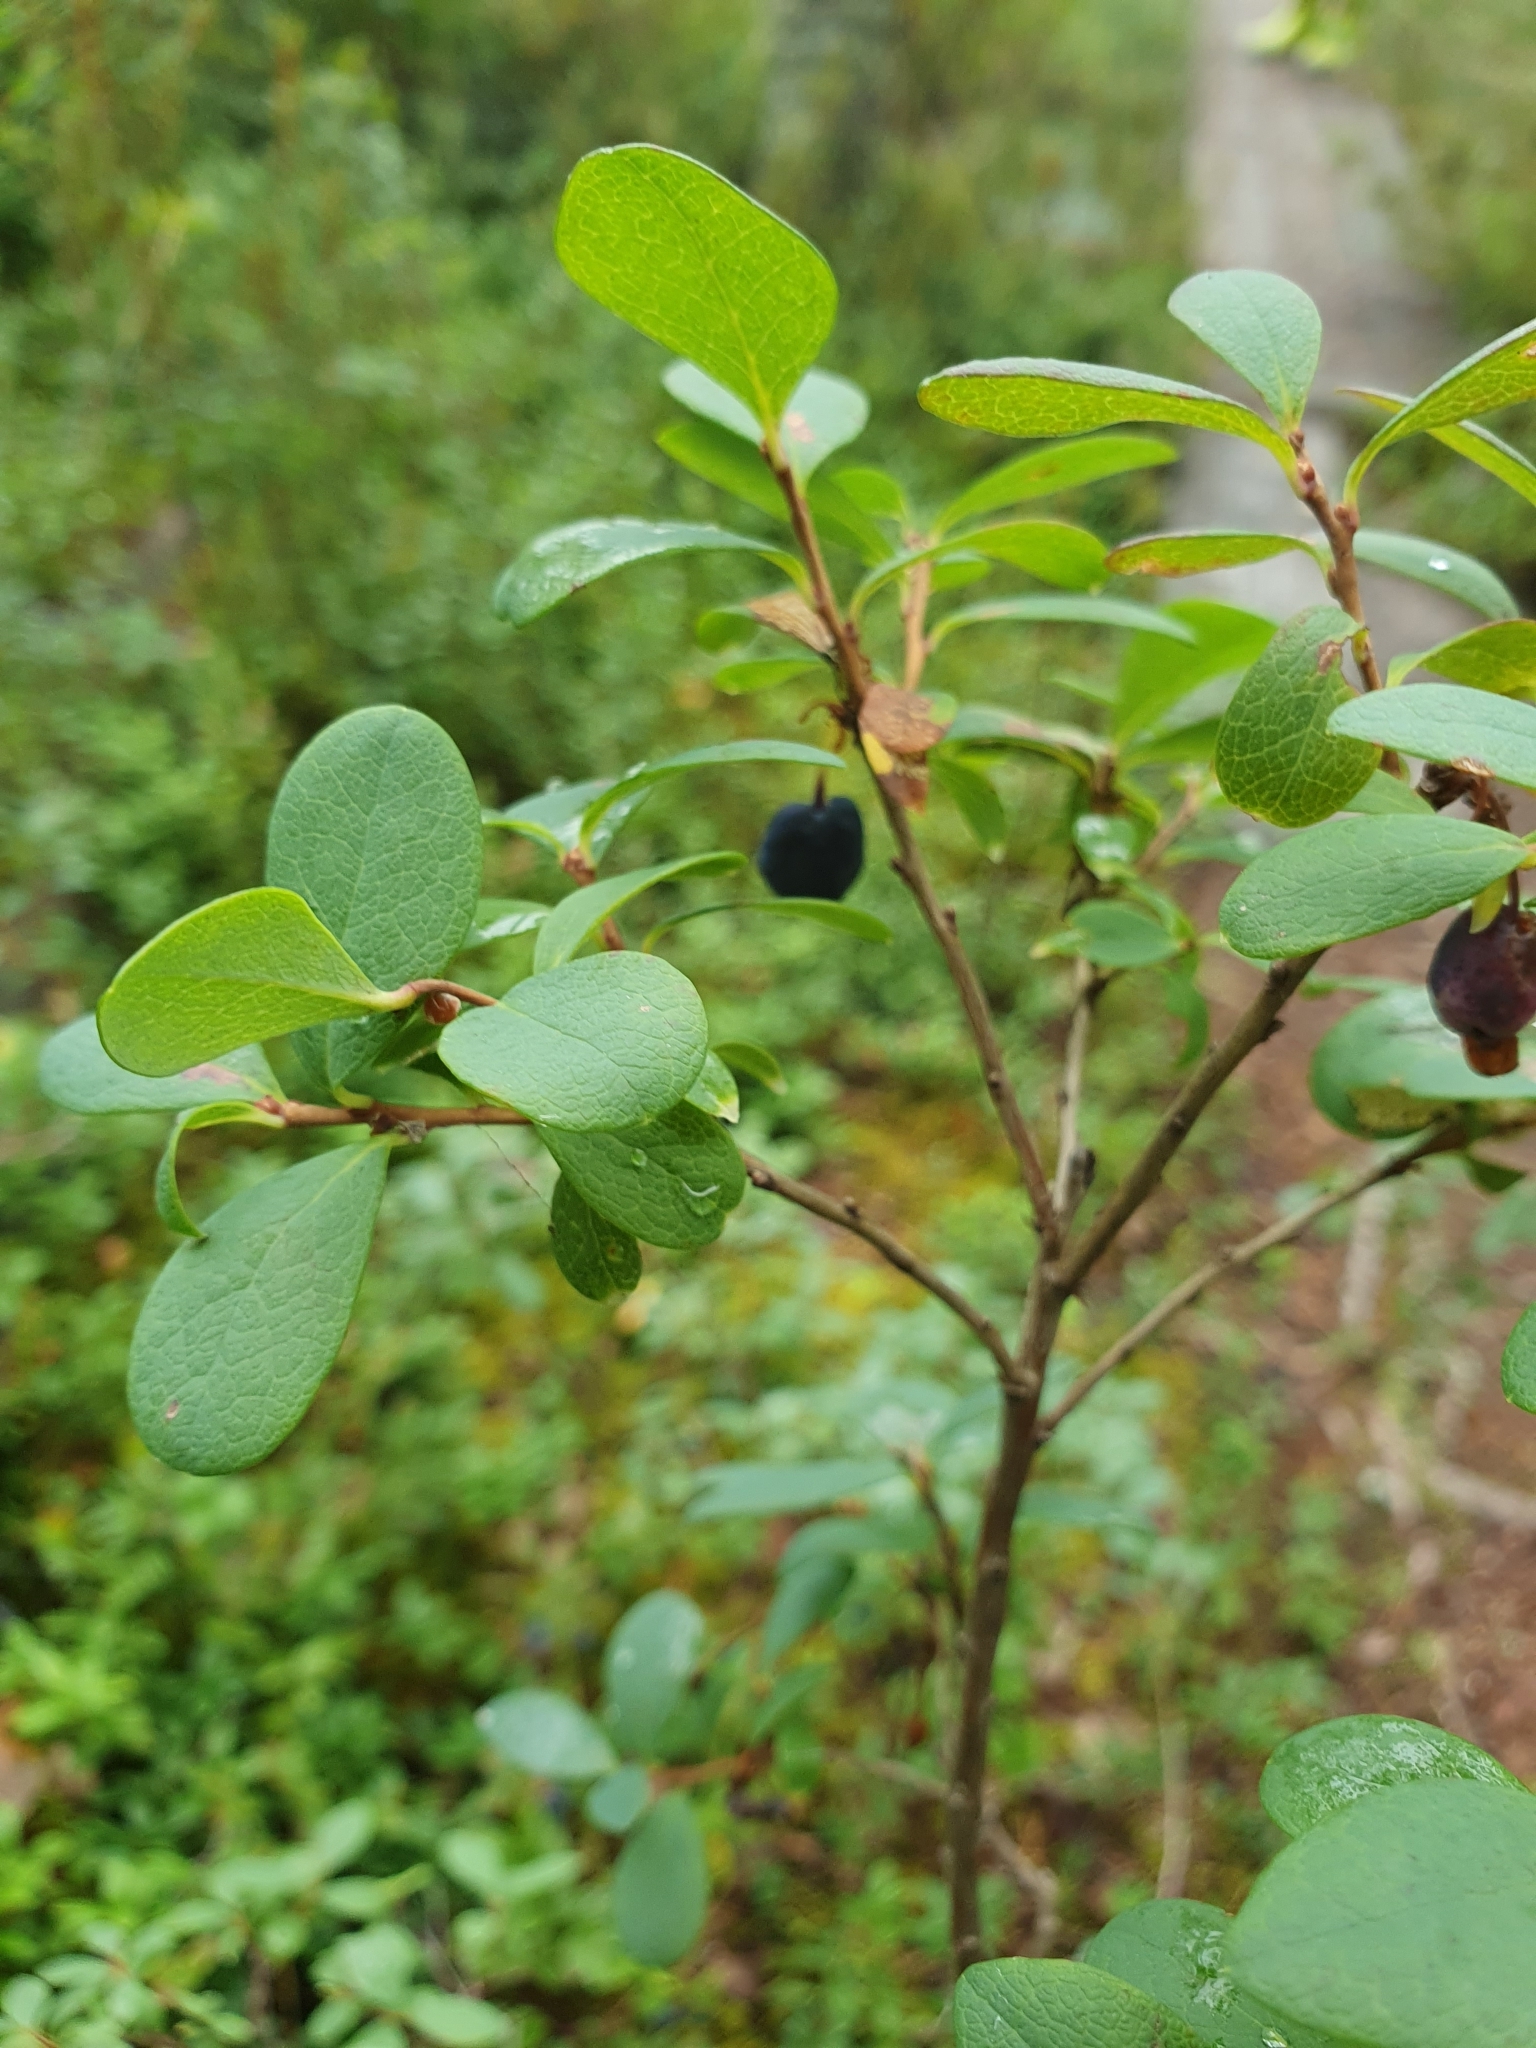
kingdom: Plantae
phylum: Tracheophyta
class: Magnoliopsida
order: Ericales
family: Ericaceae
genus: Vaccinium
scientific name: Vaccinium uliginosum
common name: Bog bilberry
